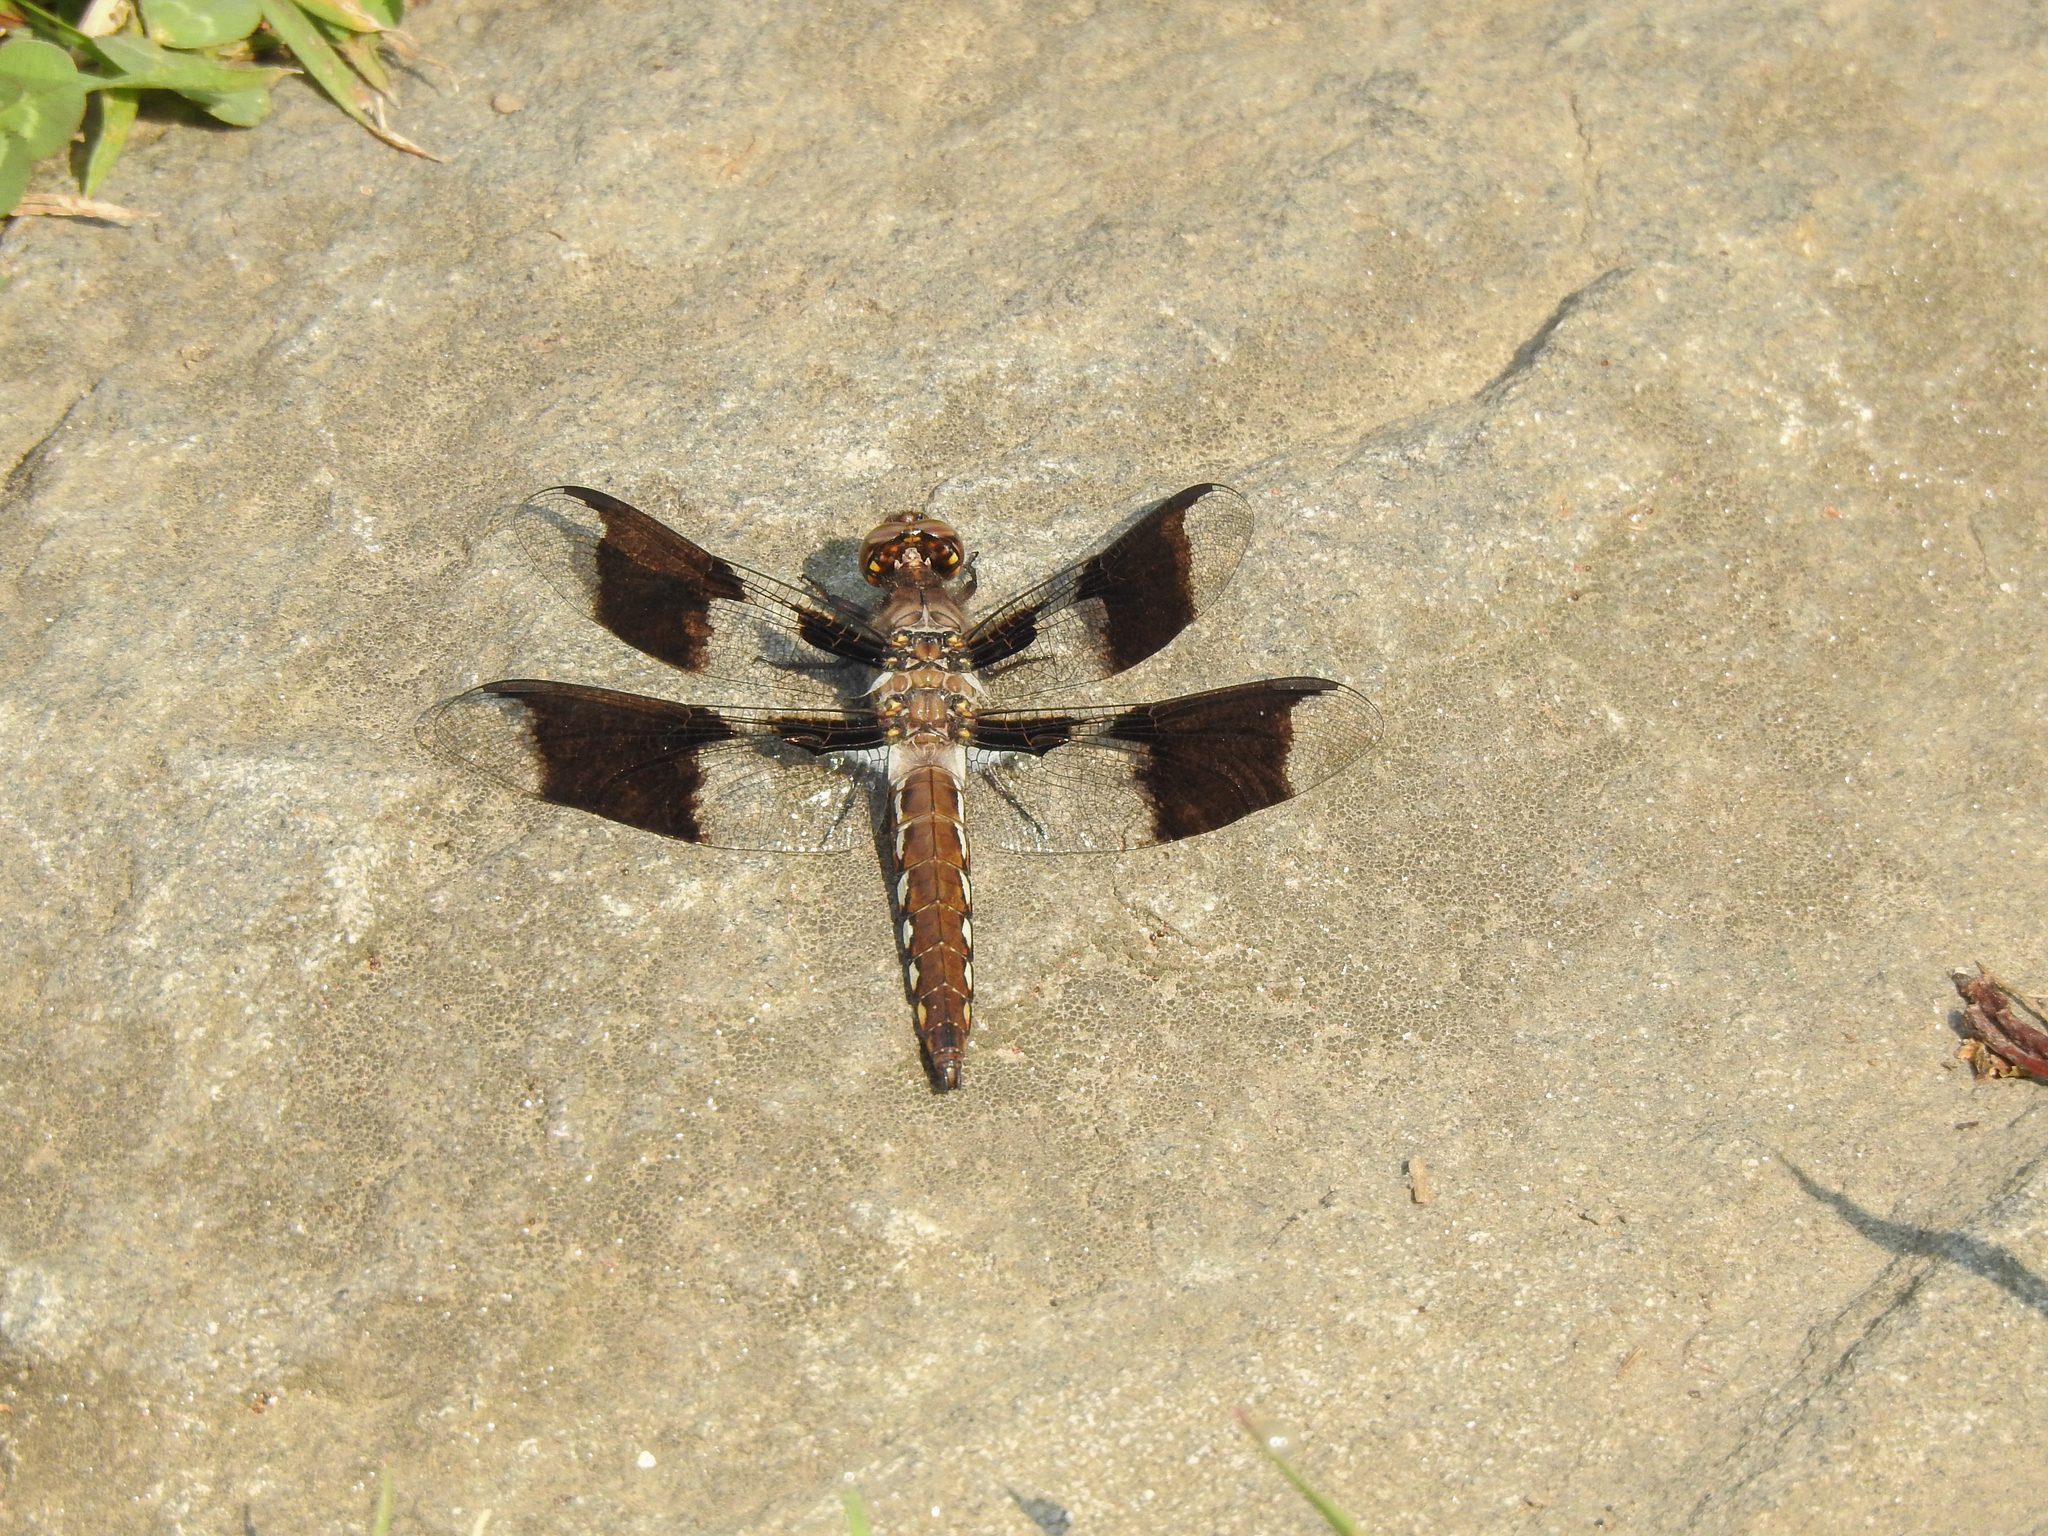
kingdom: Animalia
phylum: Arthropoda
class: Insecta
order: Odonata
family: Libellulidae
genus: Plathemis
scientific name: Plathemis lydia
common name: Common whitetail
